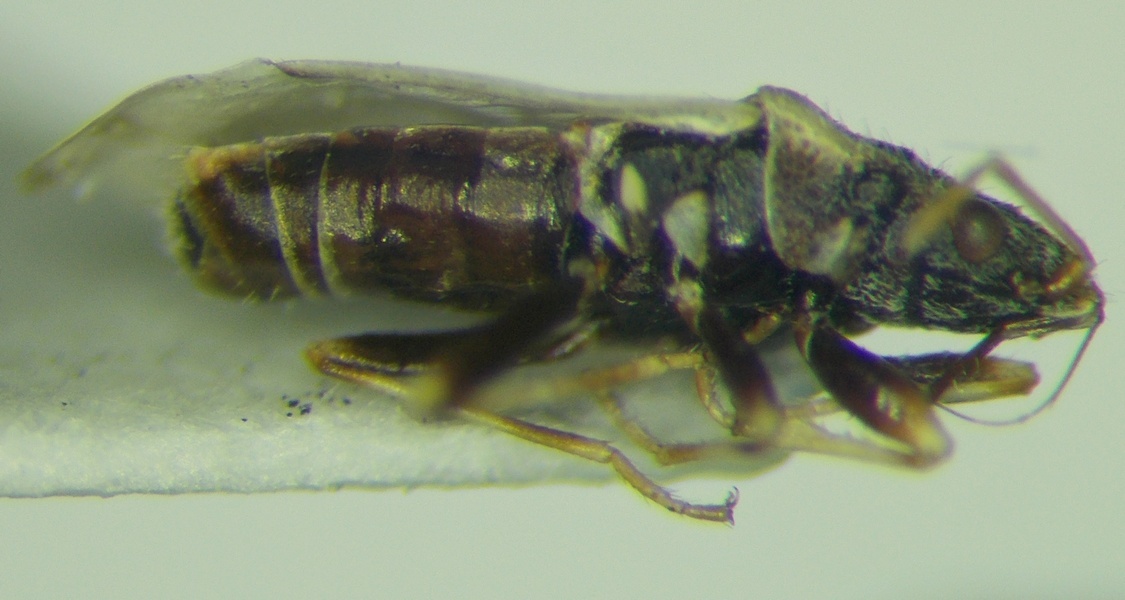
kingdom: Animalia
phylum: Arthropoda
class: Insecta
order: Hemiptera
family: Oxycarenidae
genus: Leptodemus
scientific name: Leptodemus minutus
